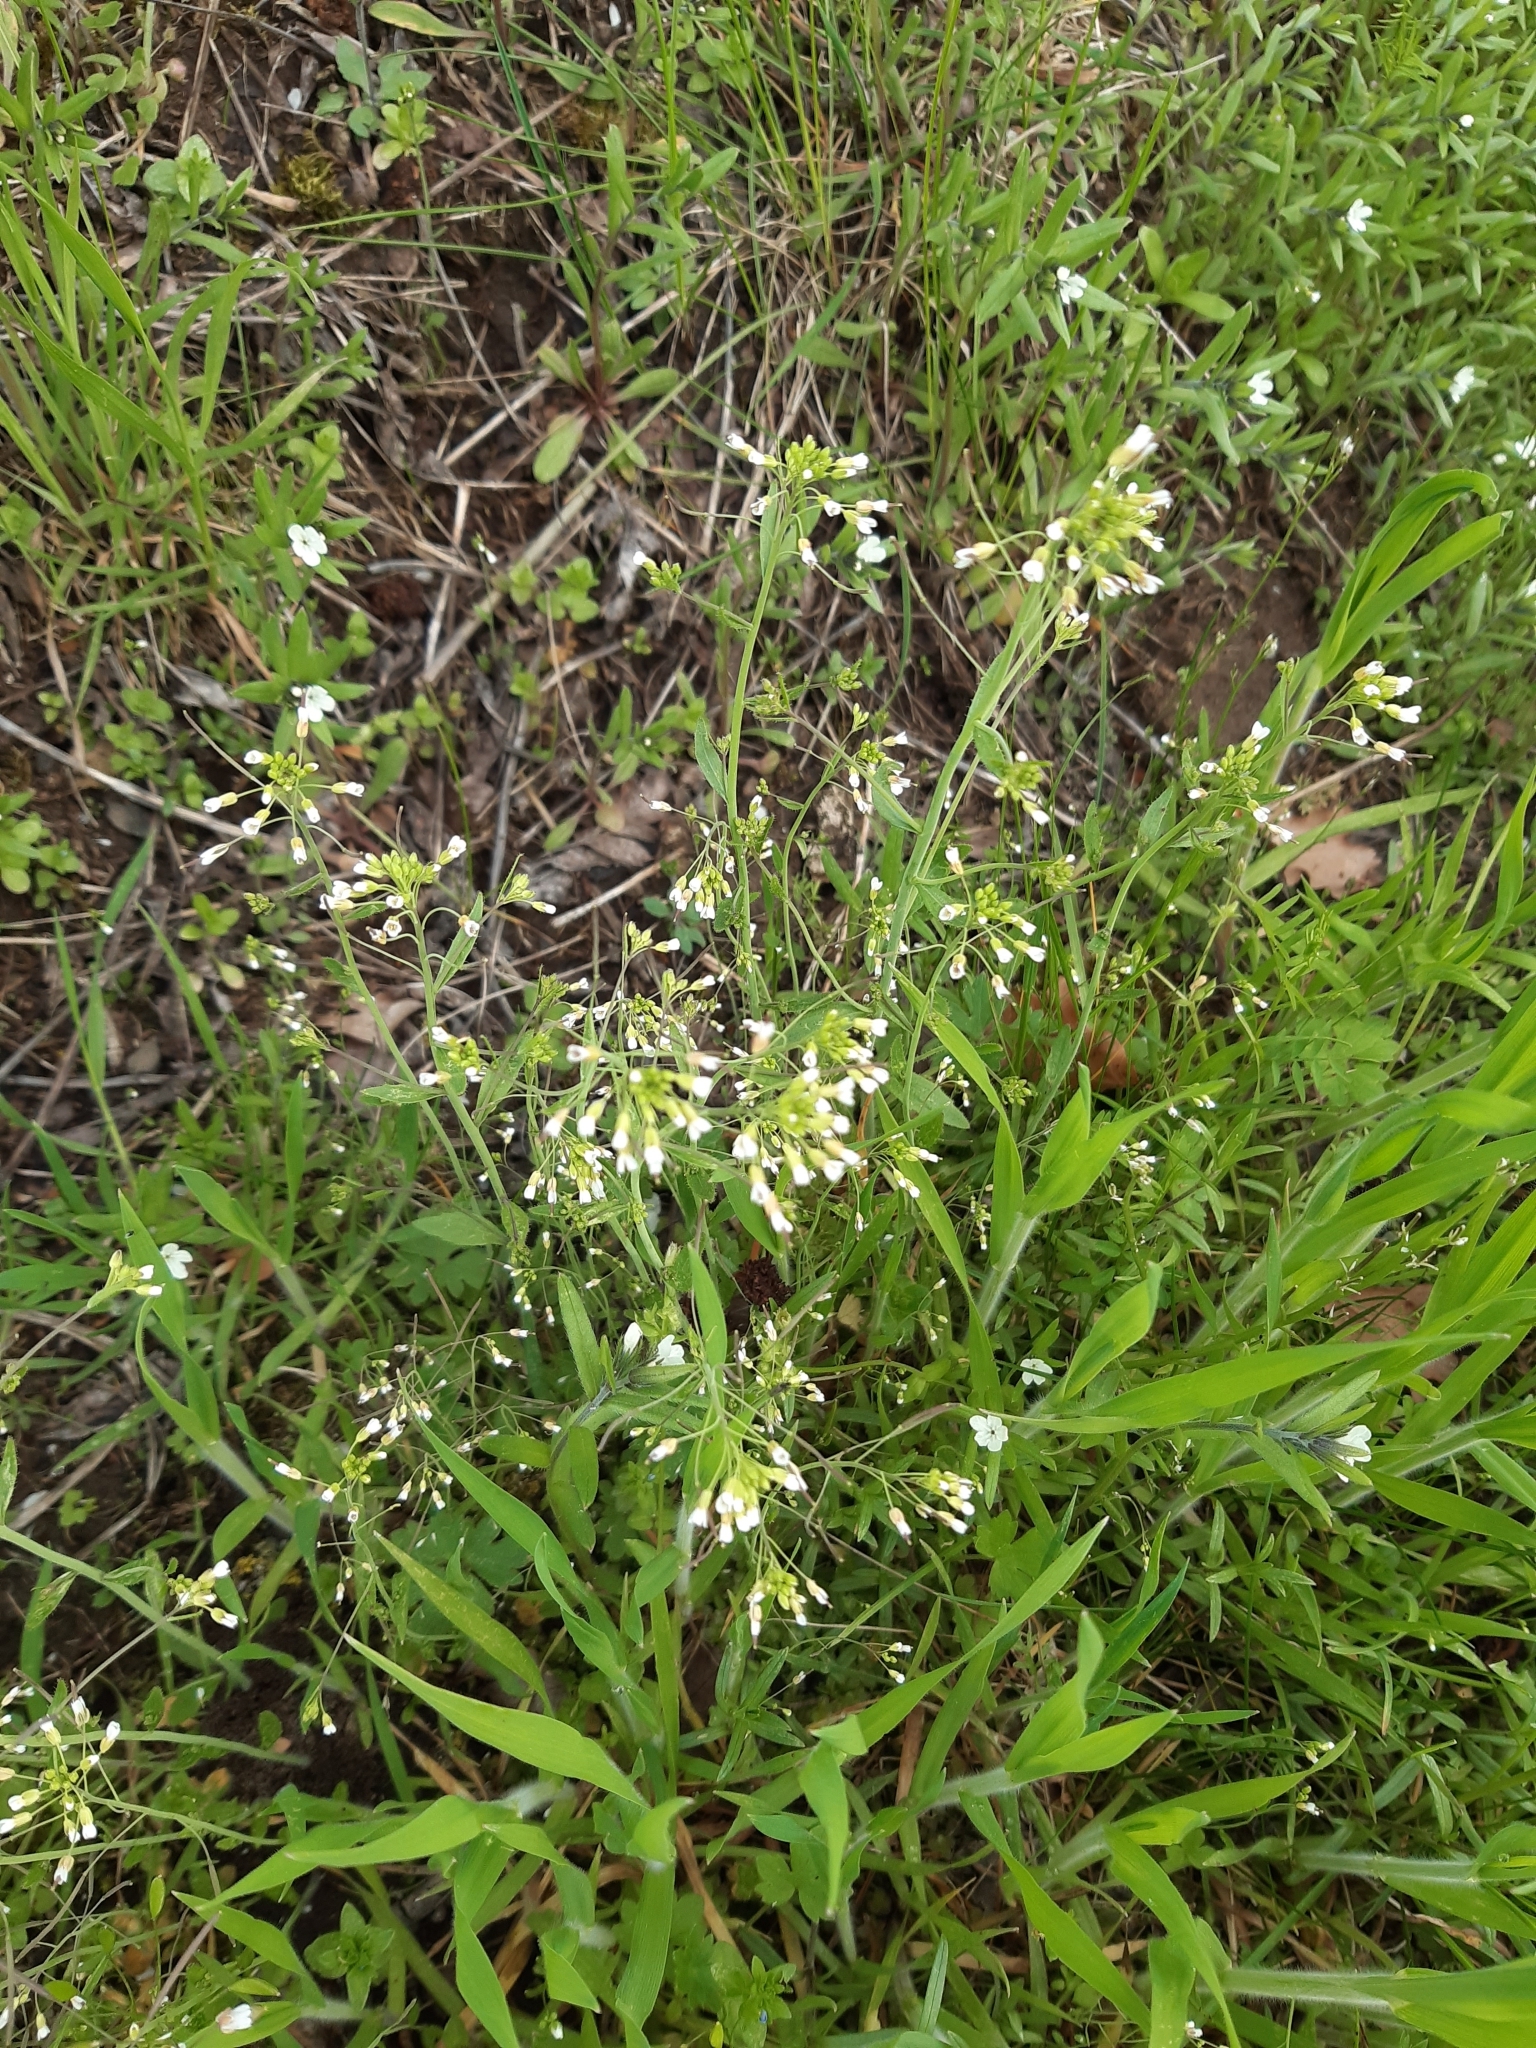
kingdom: Plantae
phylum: Tracheophyta
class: Magnoliopsida
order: Brassicales
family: Brassicaceae
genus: Arabidopsis
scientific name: Arabidopsis thaliana
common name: Thale cress
